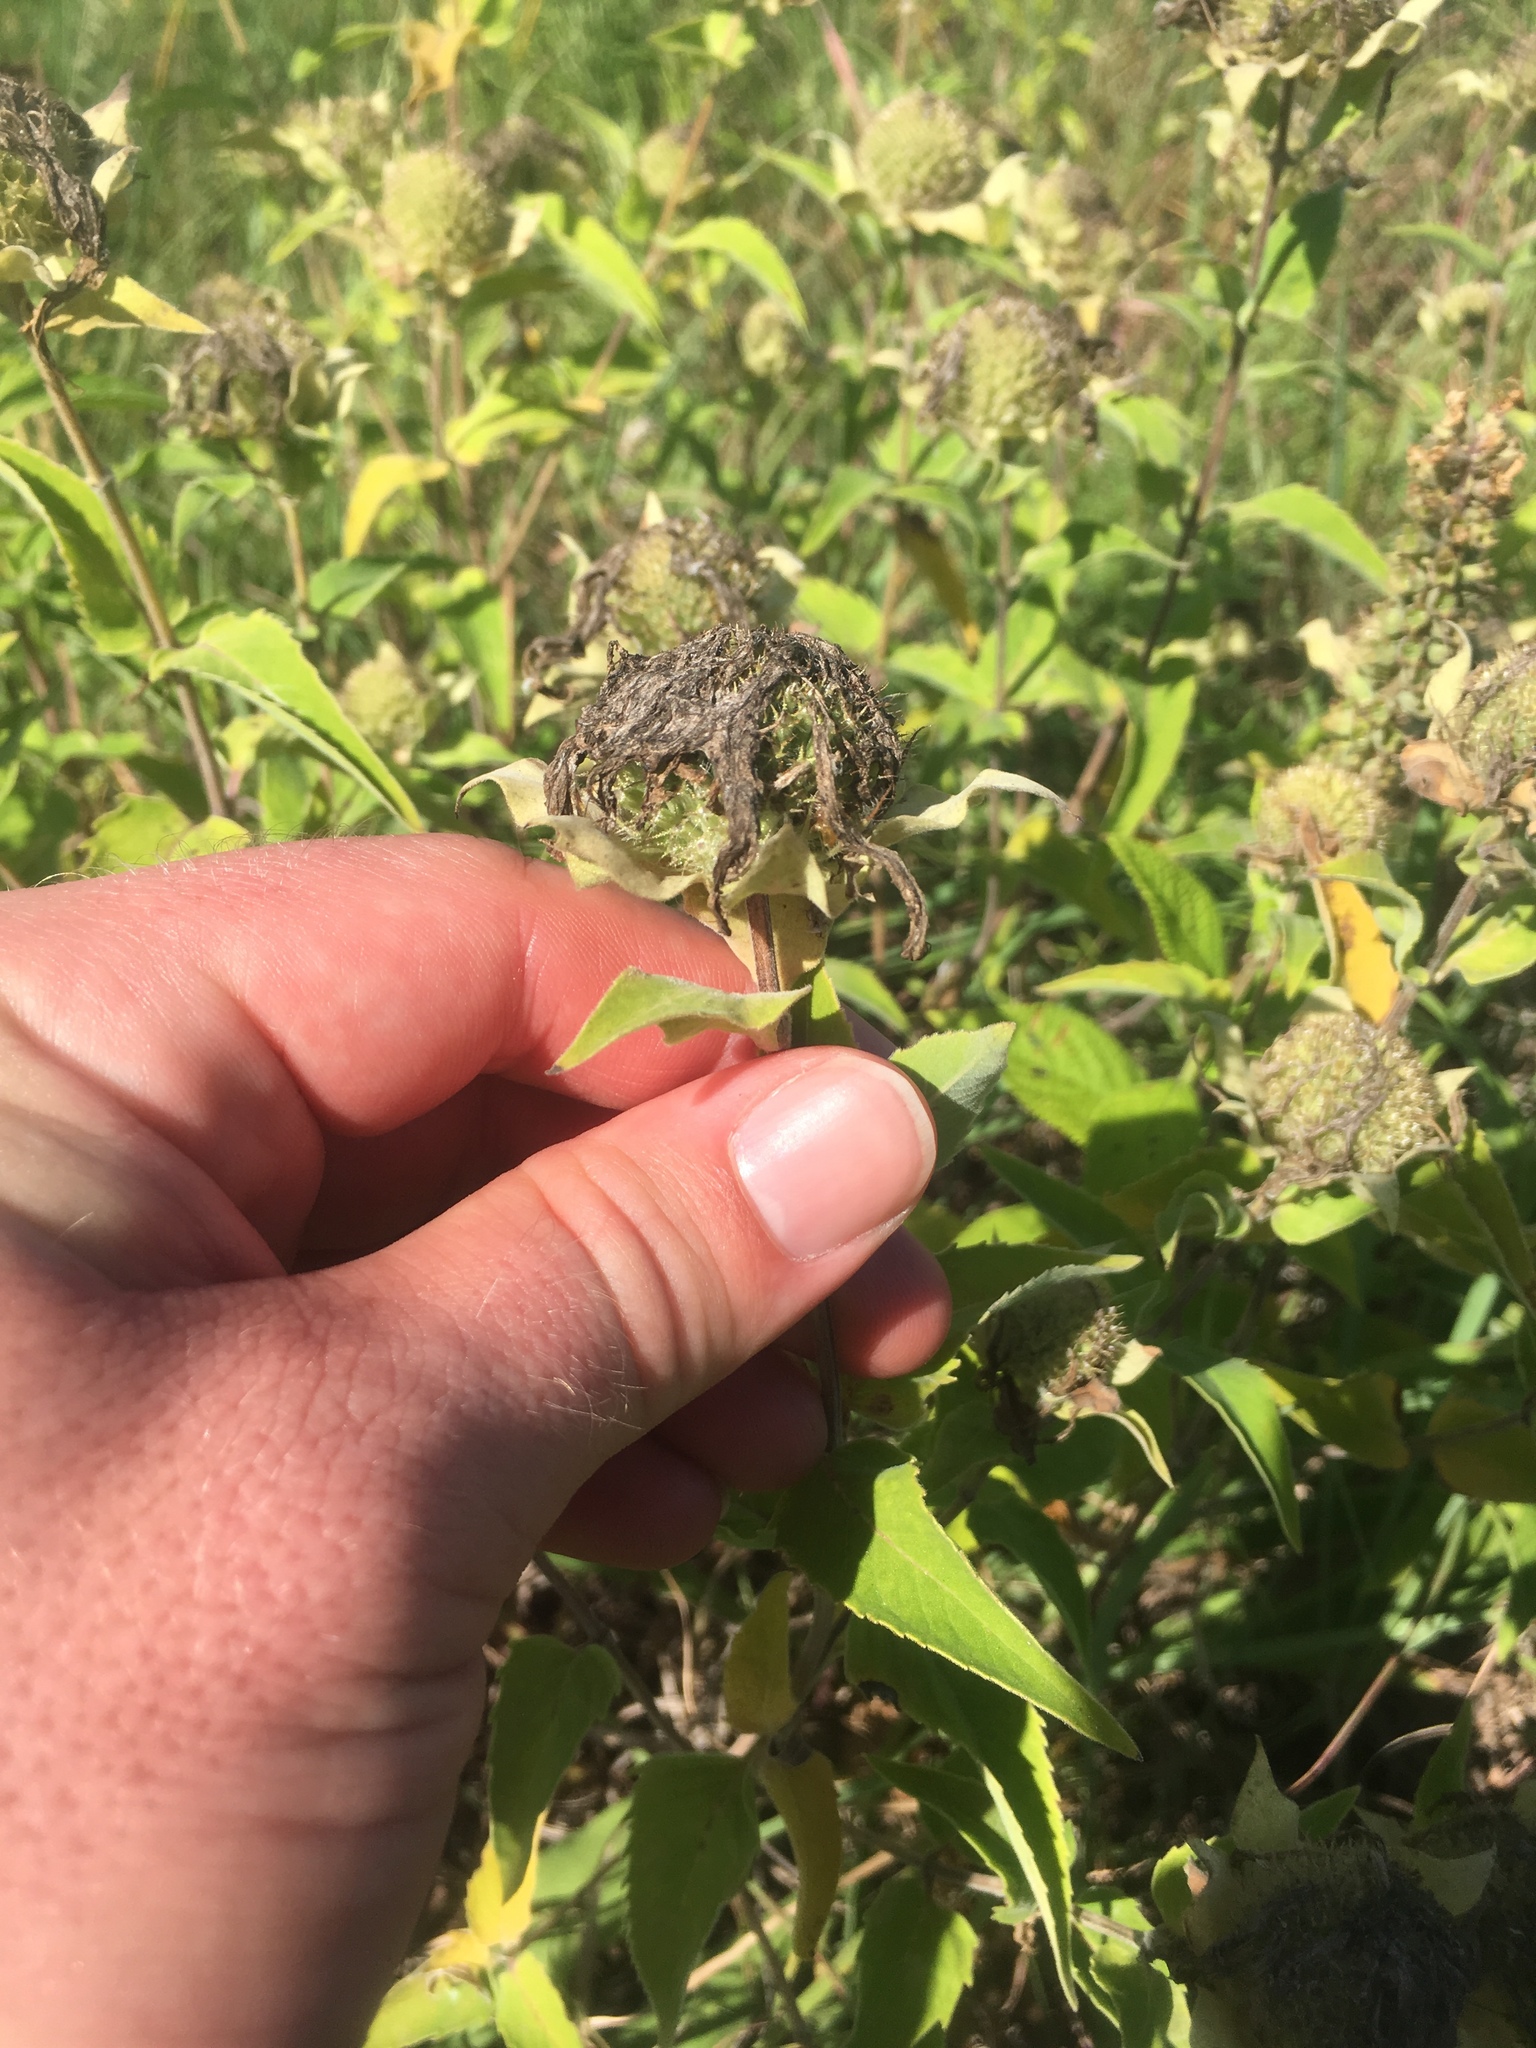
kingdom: Plantae
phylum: Tracheophyta
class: Magnoliopsida
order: Lamiales
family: Lamiaceae
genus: Monarda
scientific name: Monarda fistulosa
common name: Purple beebalm
